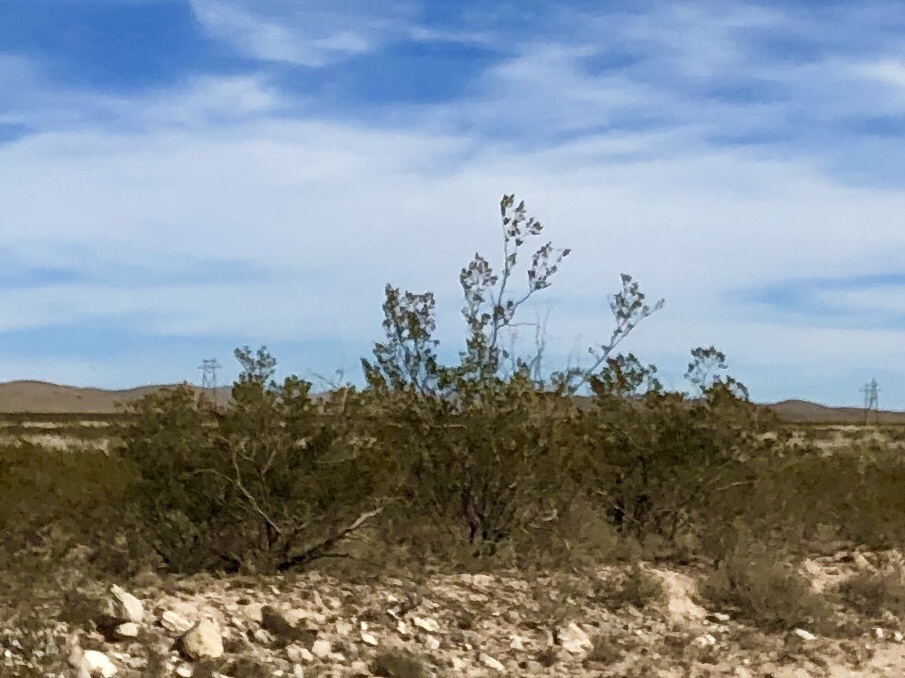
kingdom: Plantae
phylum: Tracheophyta
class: Magnoliopsida
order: Zygophyllales
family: Zygophyllaceae
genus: Larrea
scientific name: Larrea tridentata
